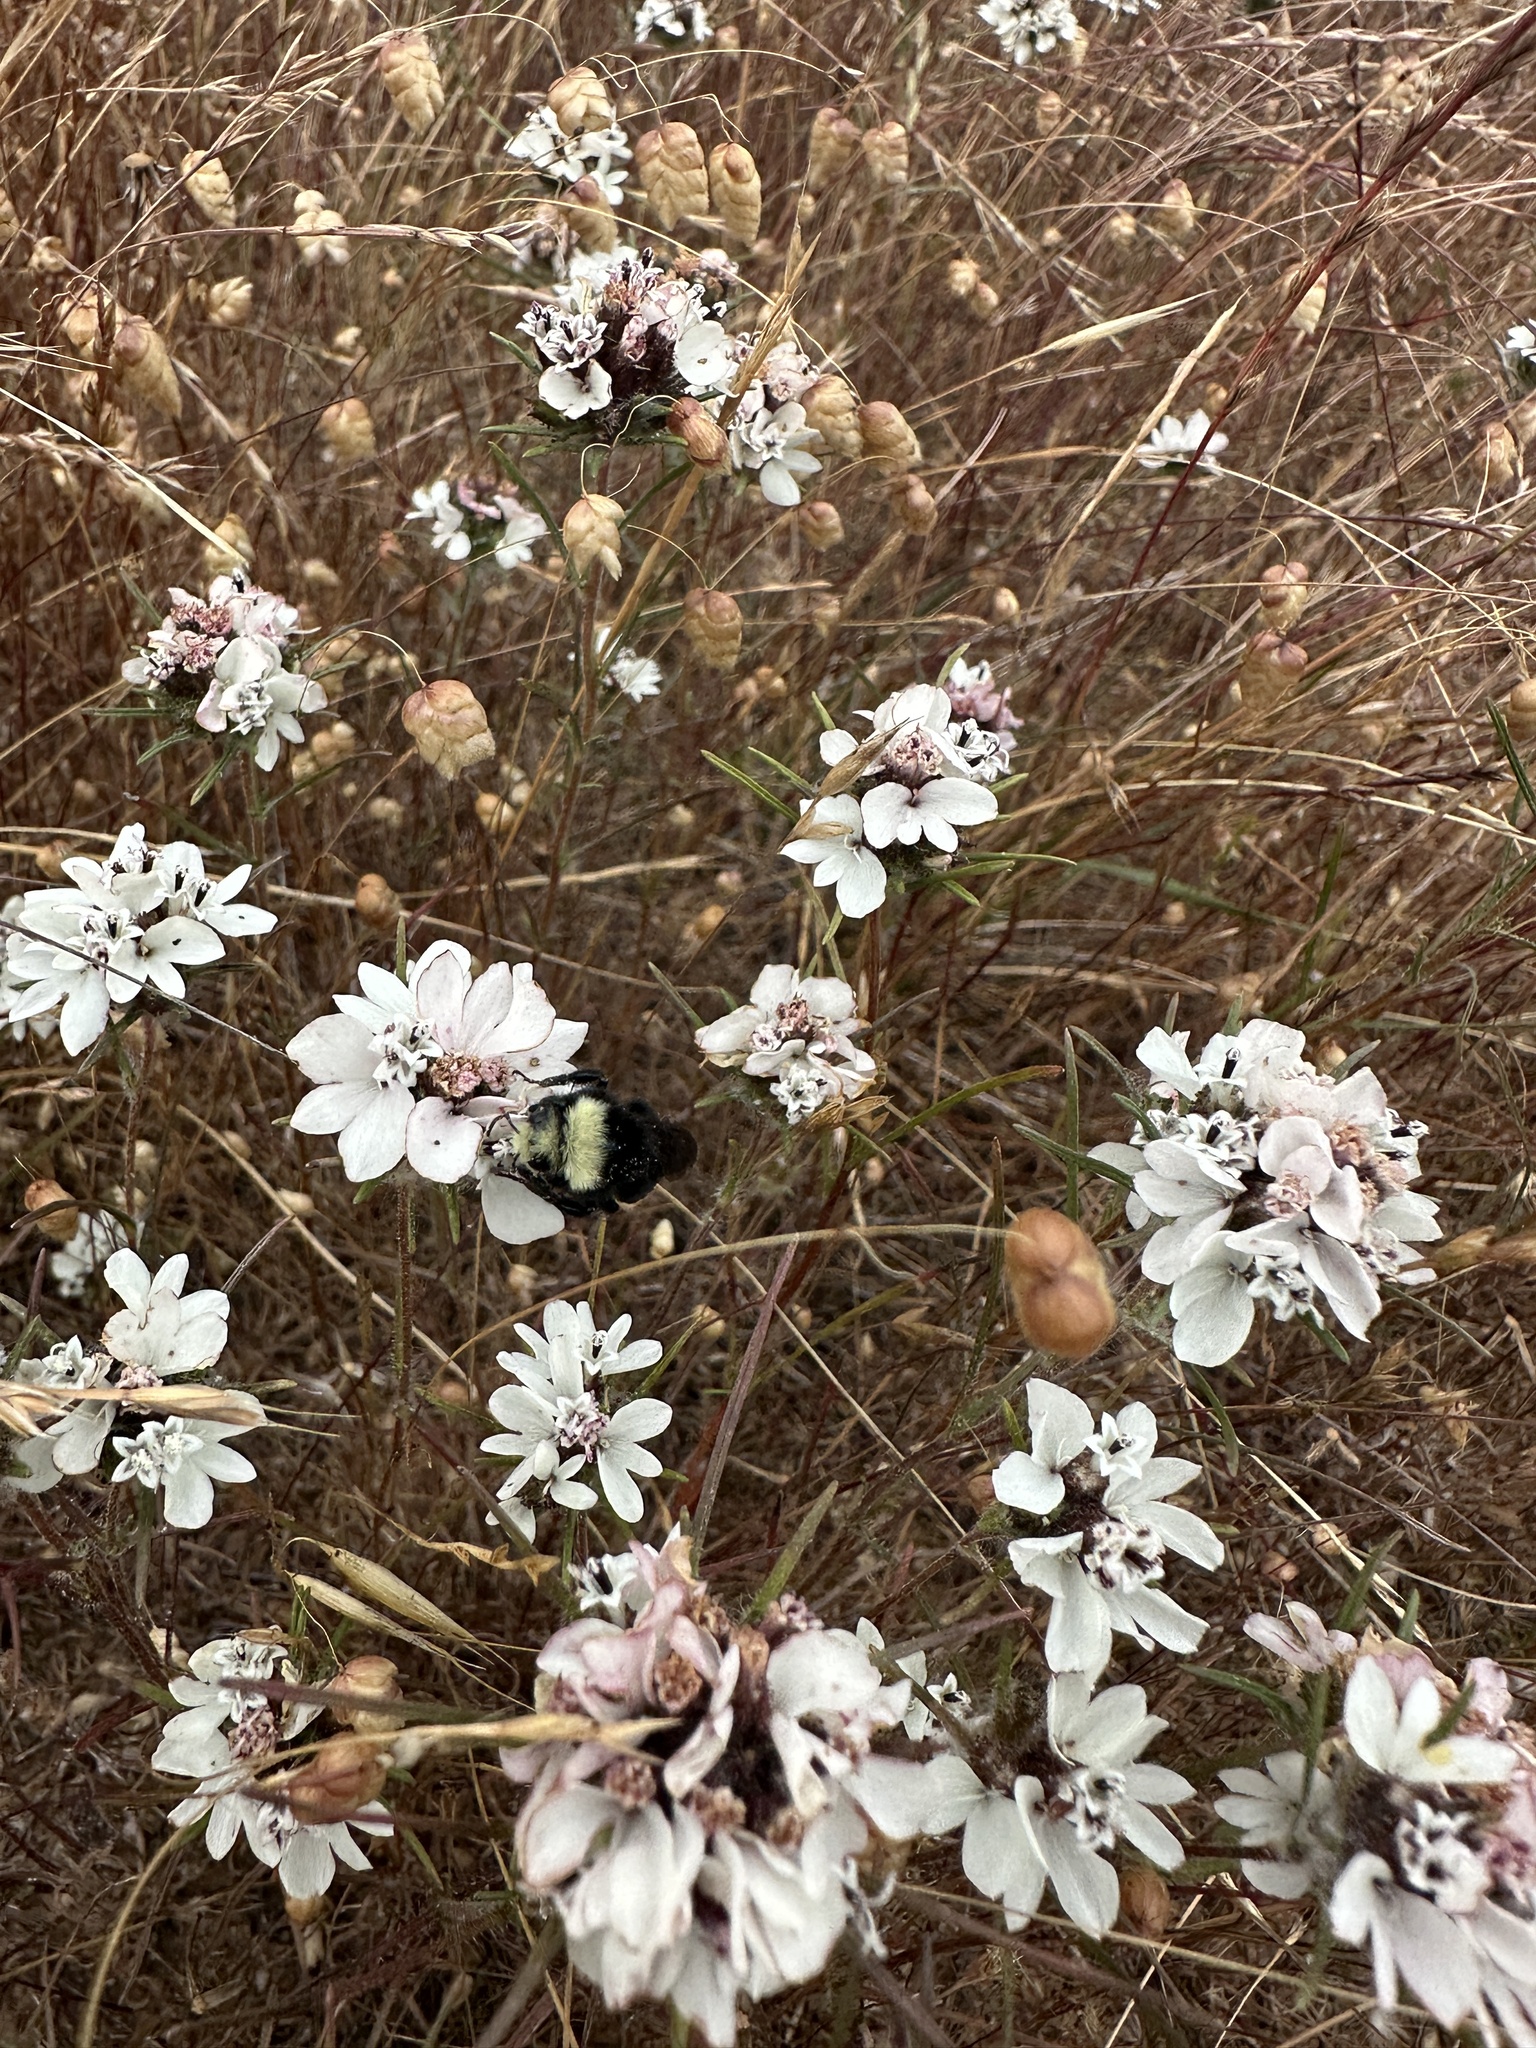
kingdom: Plantae
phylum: Tracheophyta
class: Magnoliopsida
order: Asterales
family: Asteraceae
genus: Calycadenia
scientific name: Calycadenia multiglandulosa
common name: Sticky calycadenia
